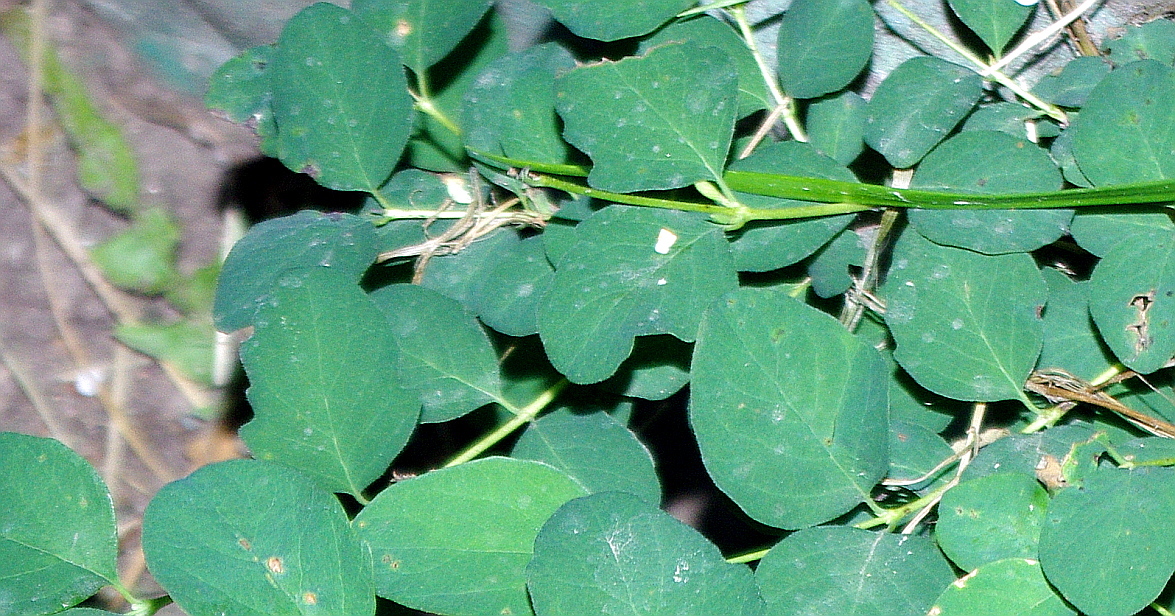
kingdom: Plantae
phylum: Tracheophyta
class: Magnoliopsida
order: Dipsacales
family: Caprifoliaceae
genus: Symphoricarpos
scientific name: Symphoricarpos albus
